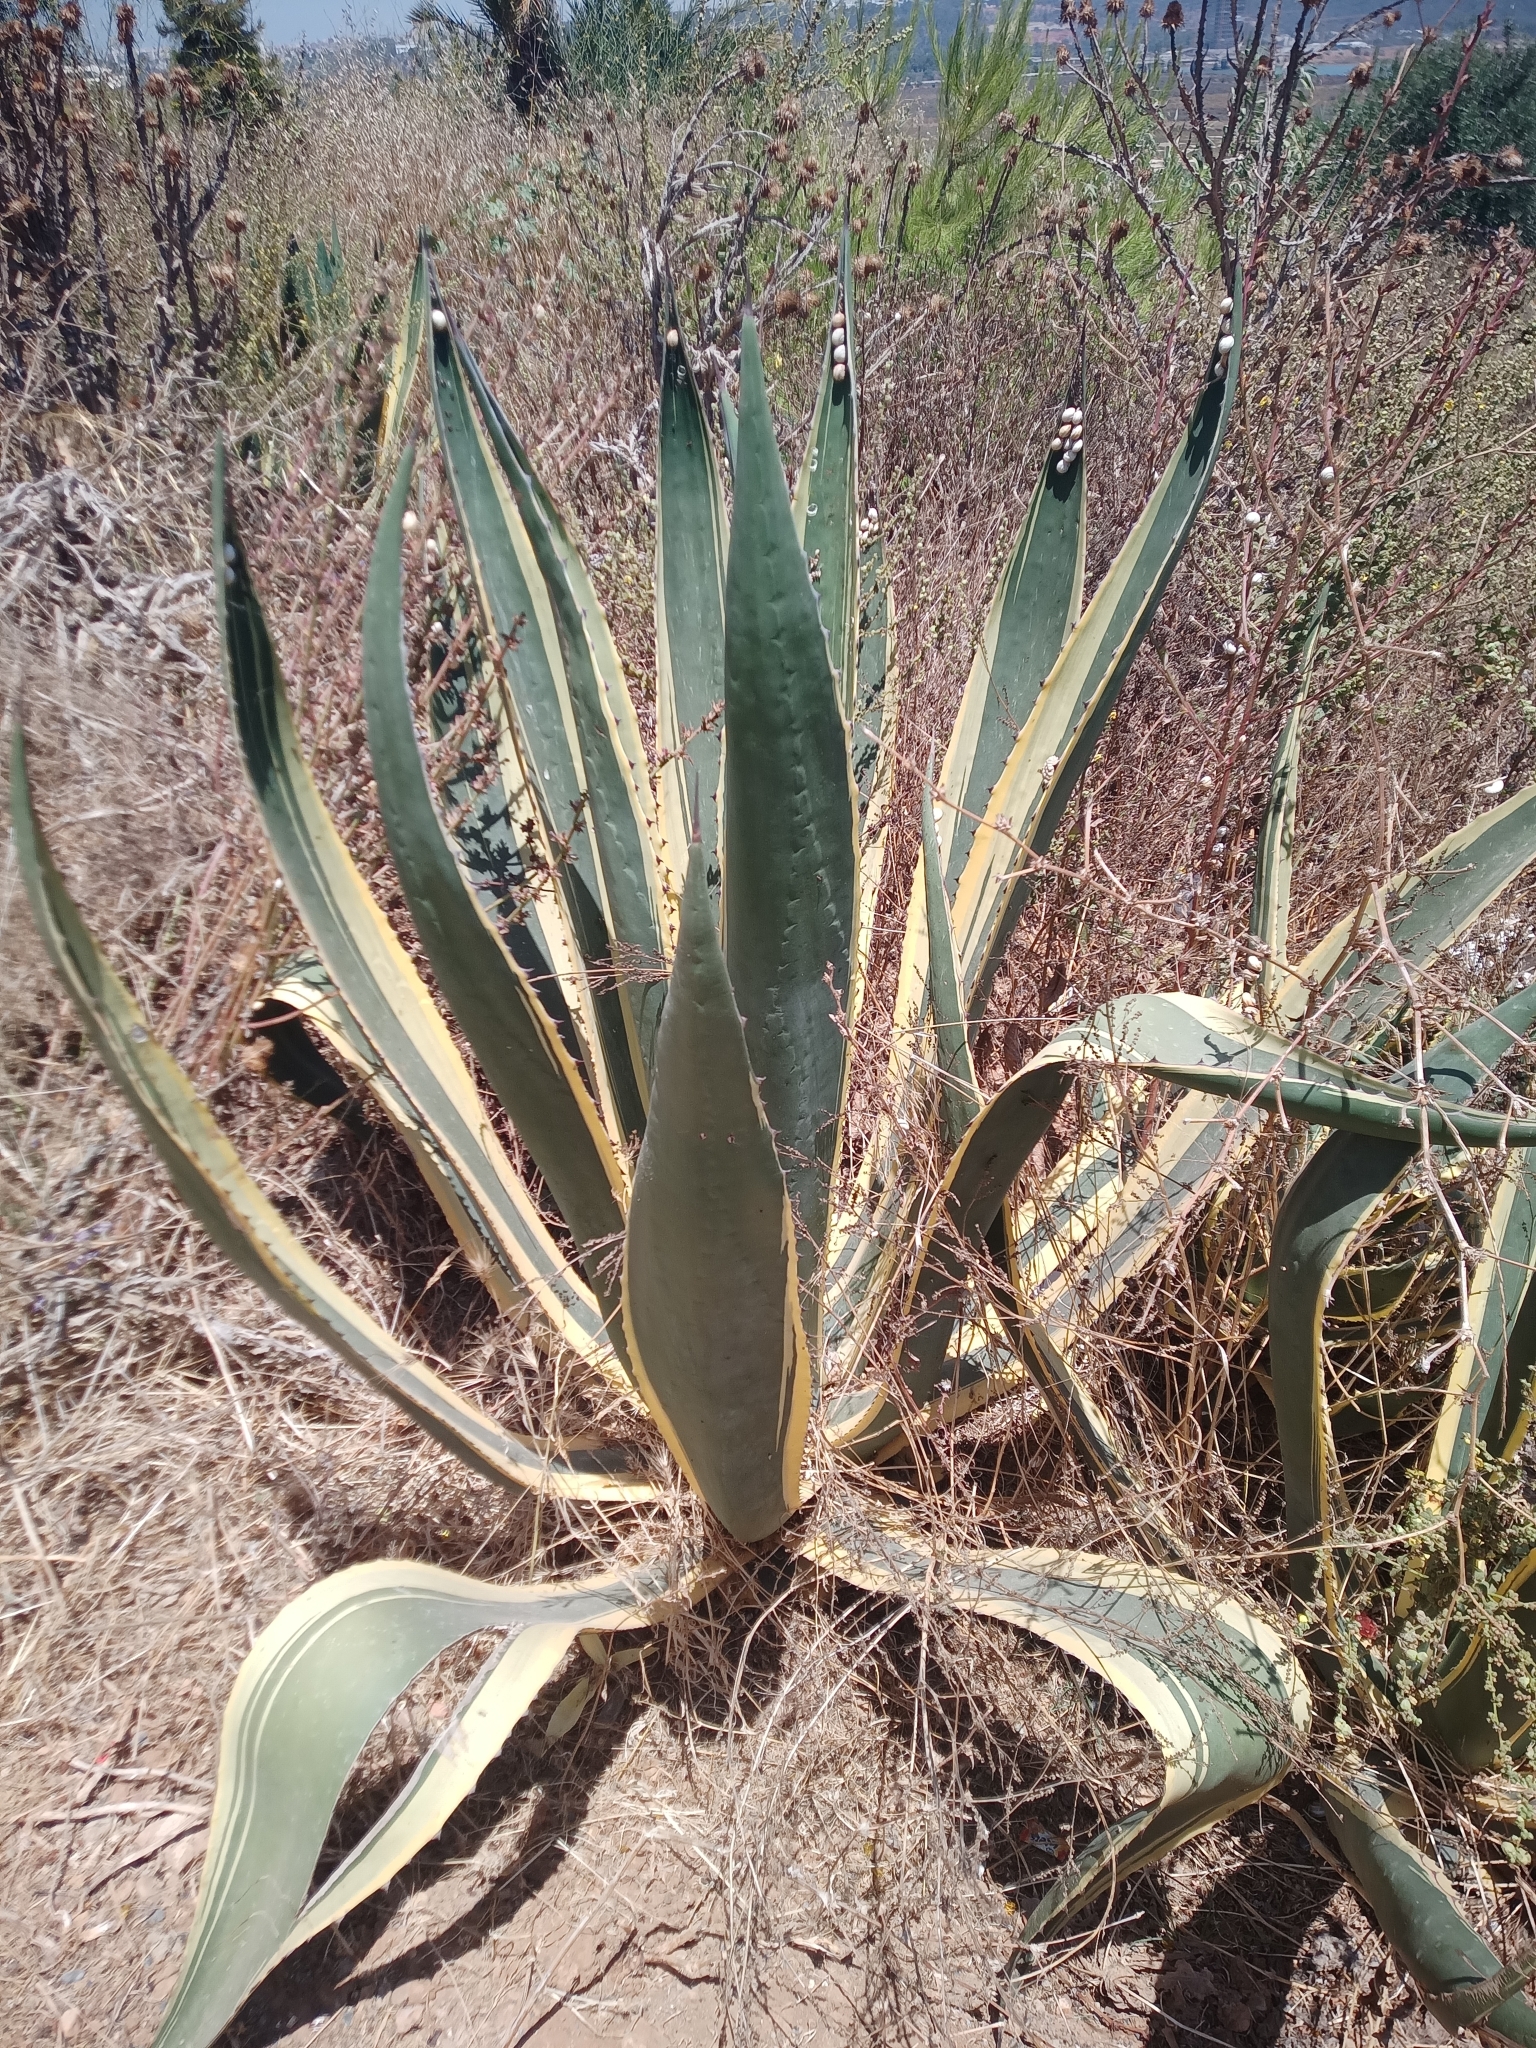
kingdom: Plantae
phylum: Tracheophyta
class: Liliopsida
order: Asparagales
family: Asparagaceae
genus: Agave
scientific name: Agave americana
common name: Centuryplant
